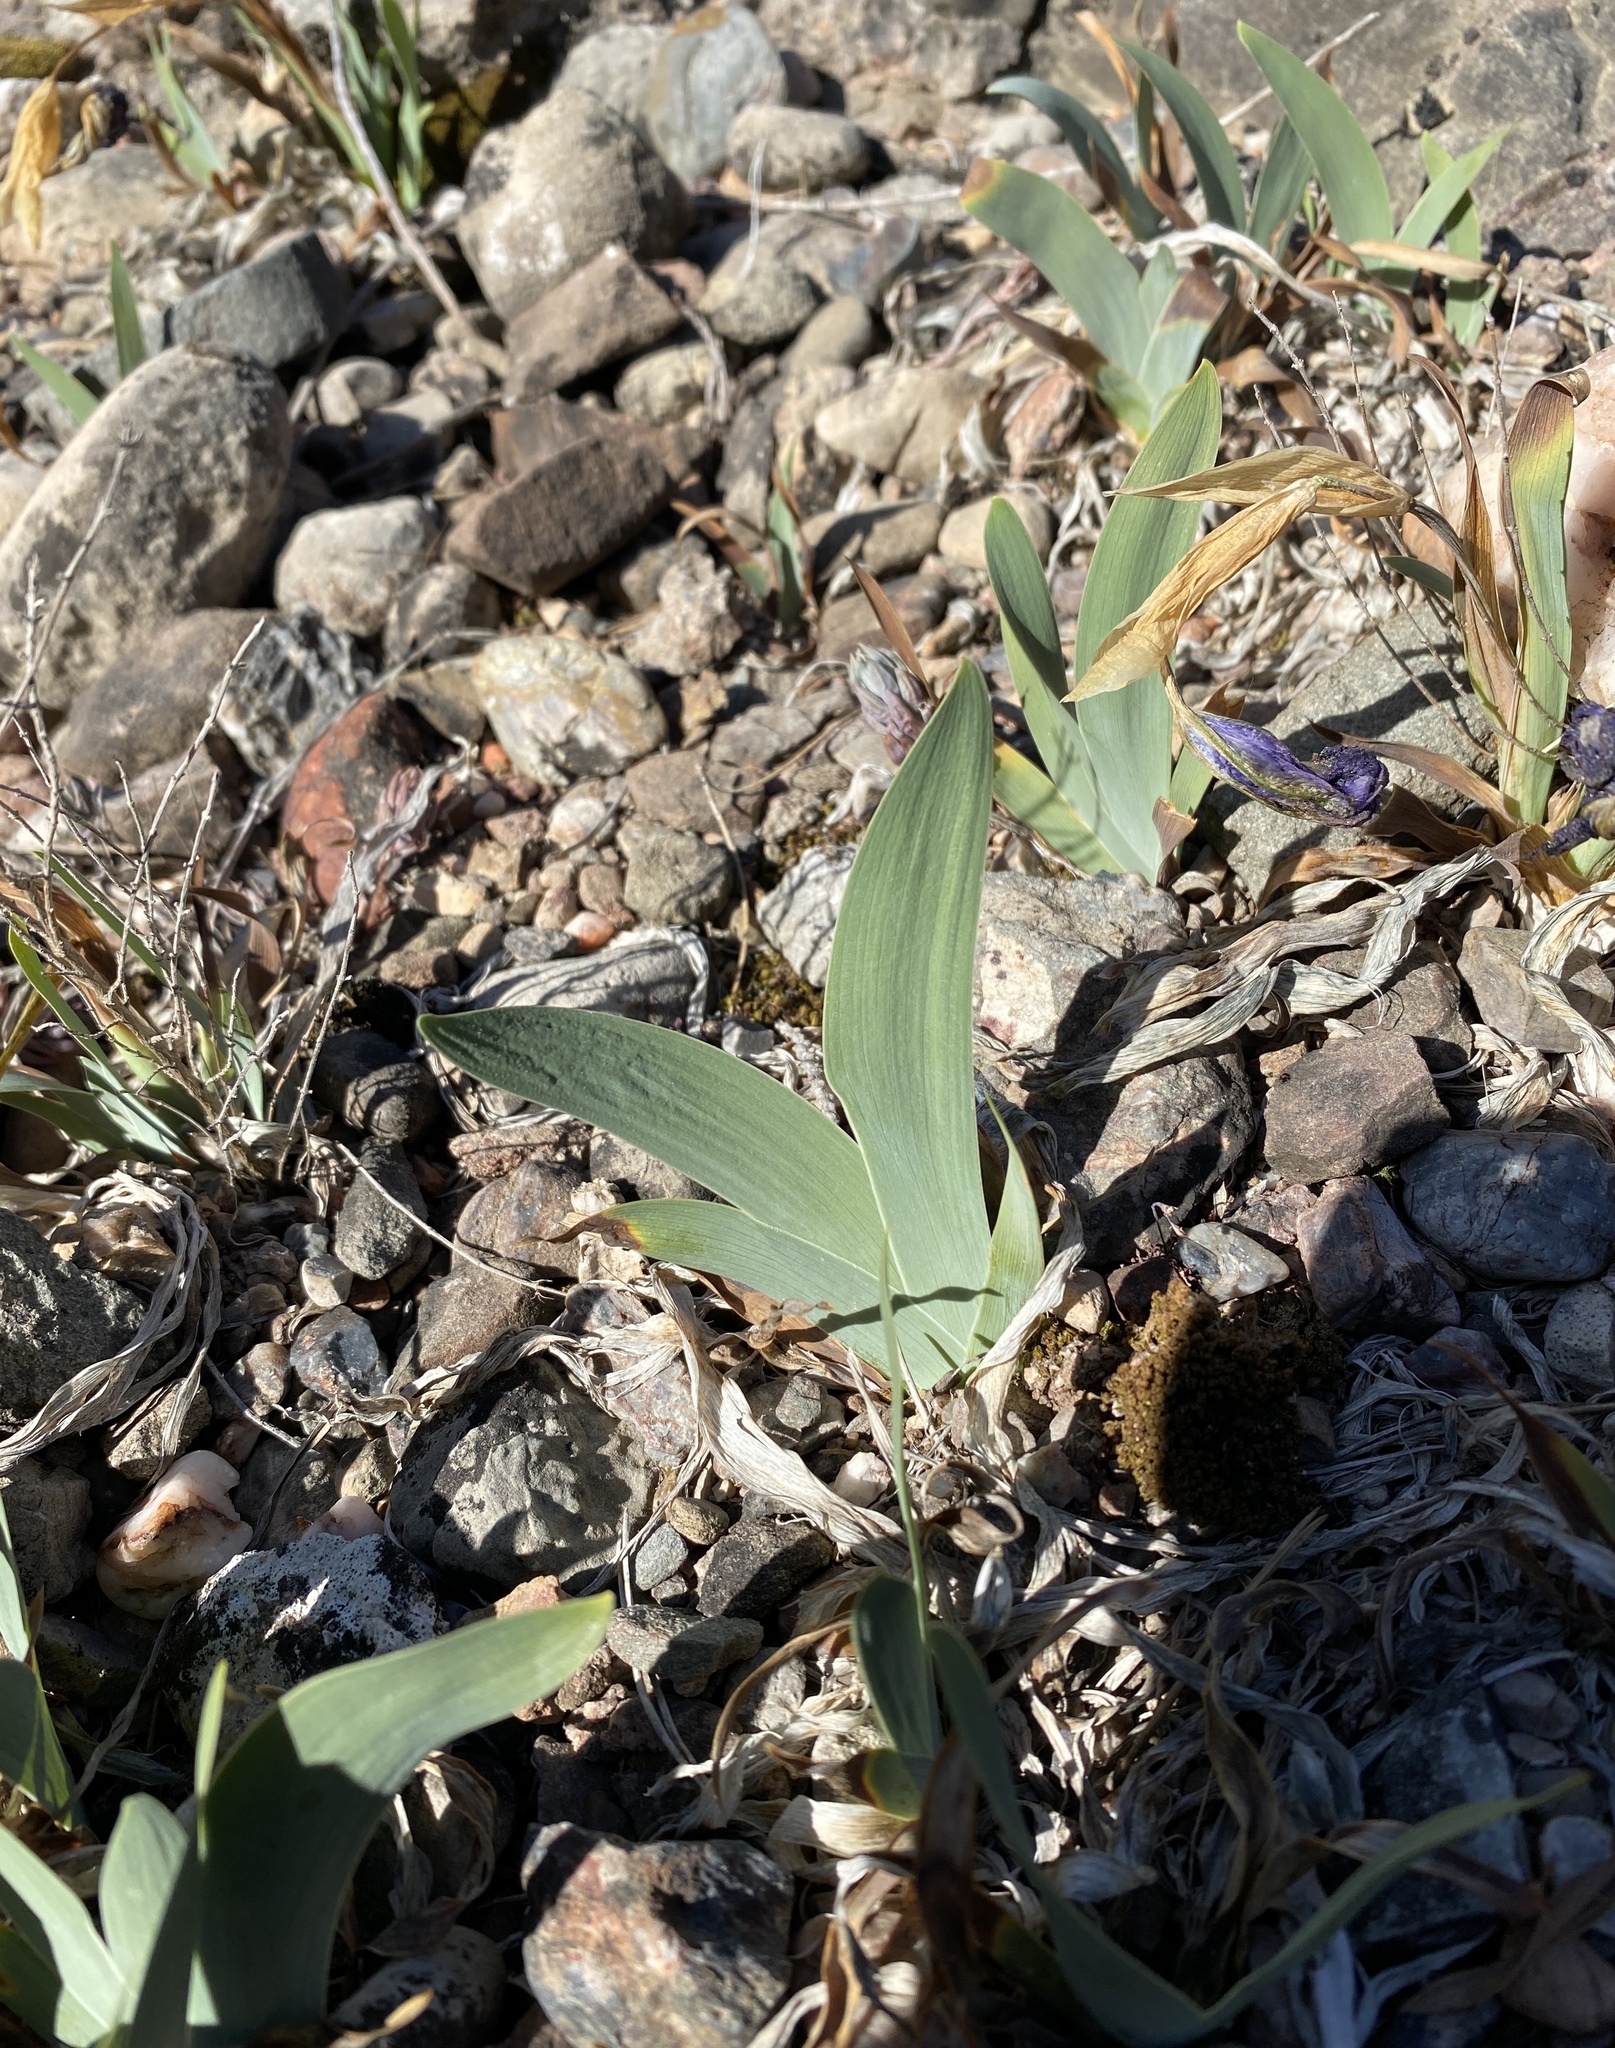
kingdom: Plantae
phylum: Tracheophyta
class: Liliopsida
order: Asparagales
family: Iridaceae
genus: Iris
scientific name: Iris lutescens
